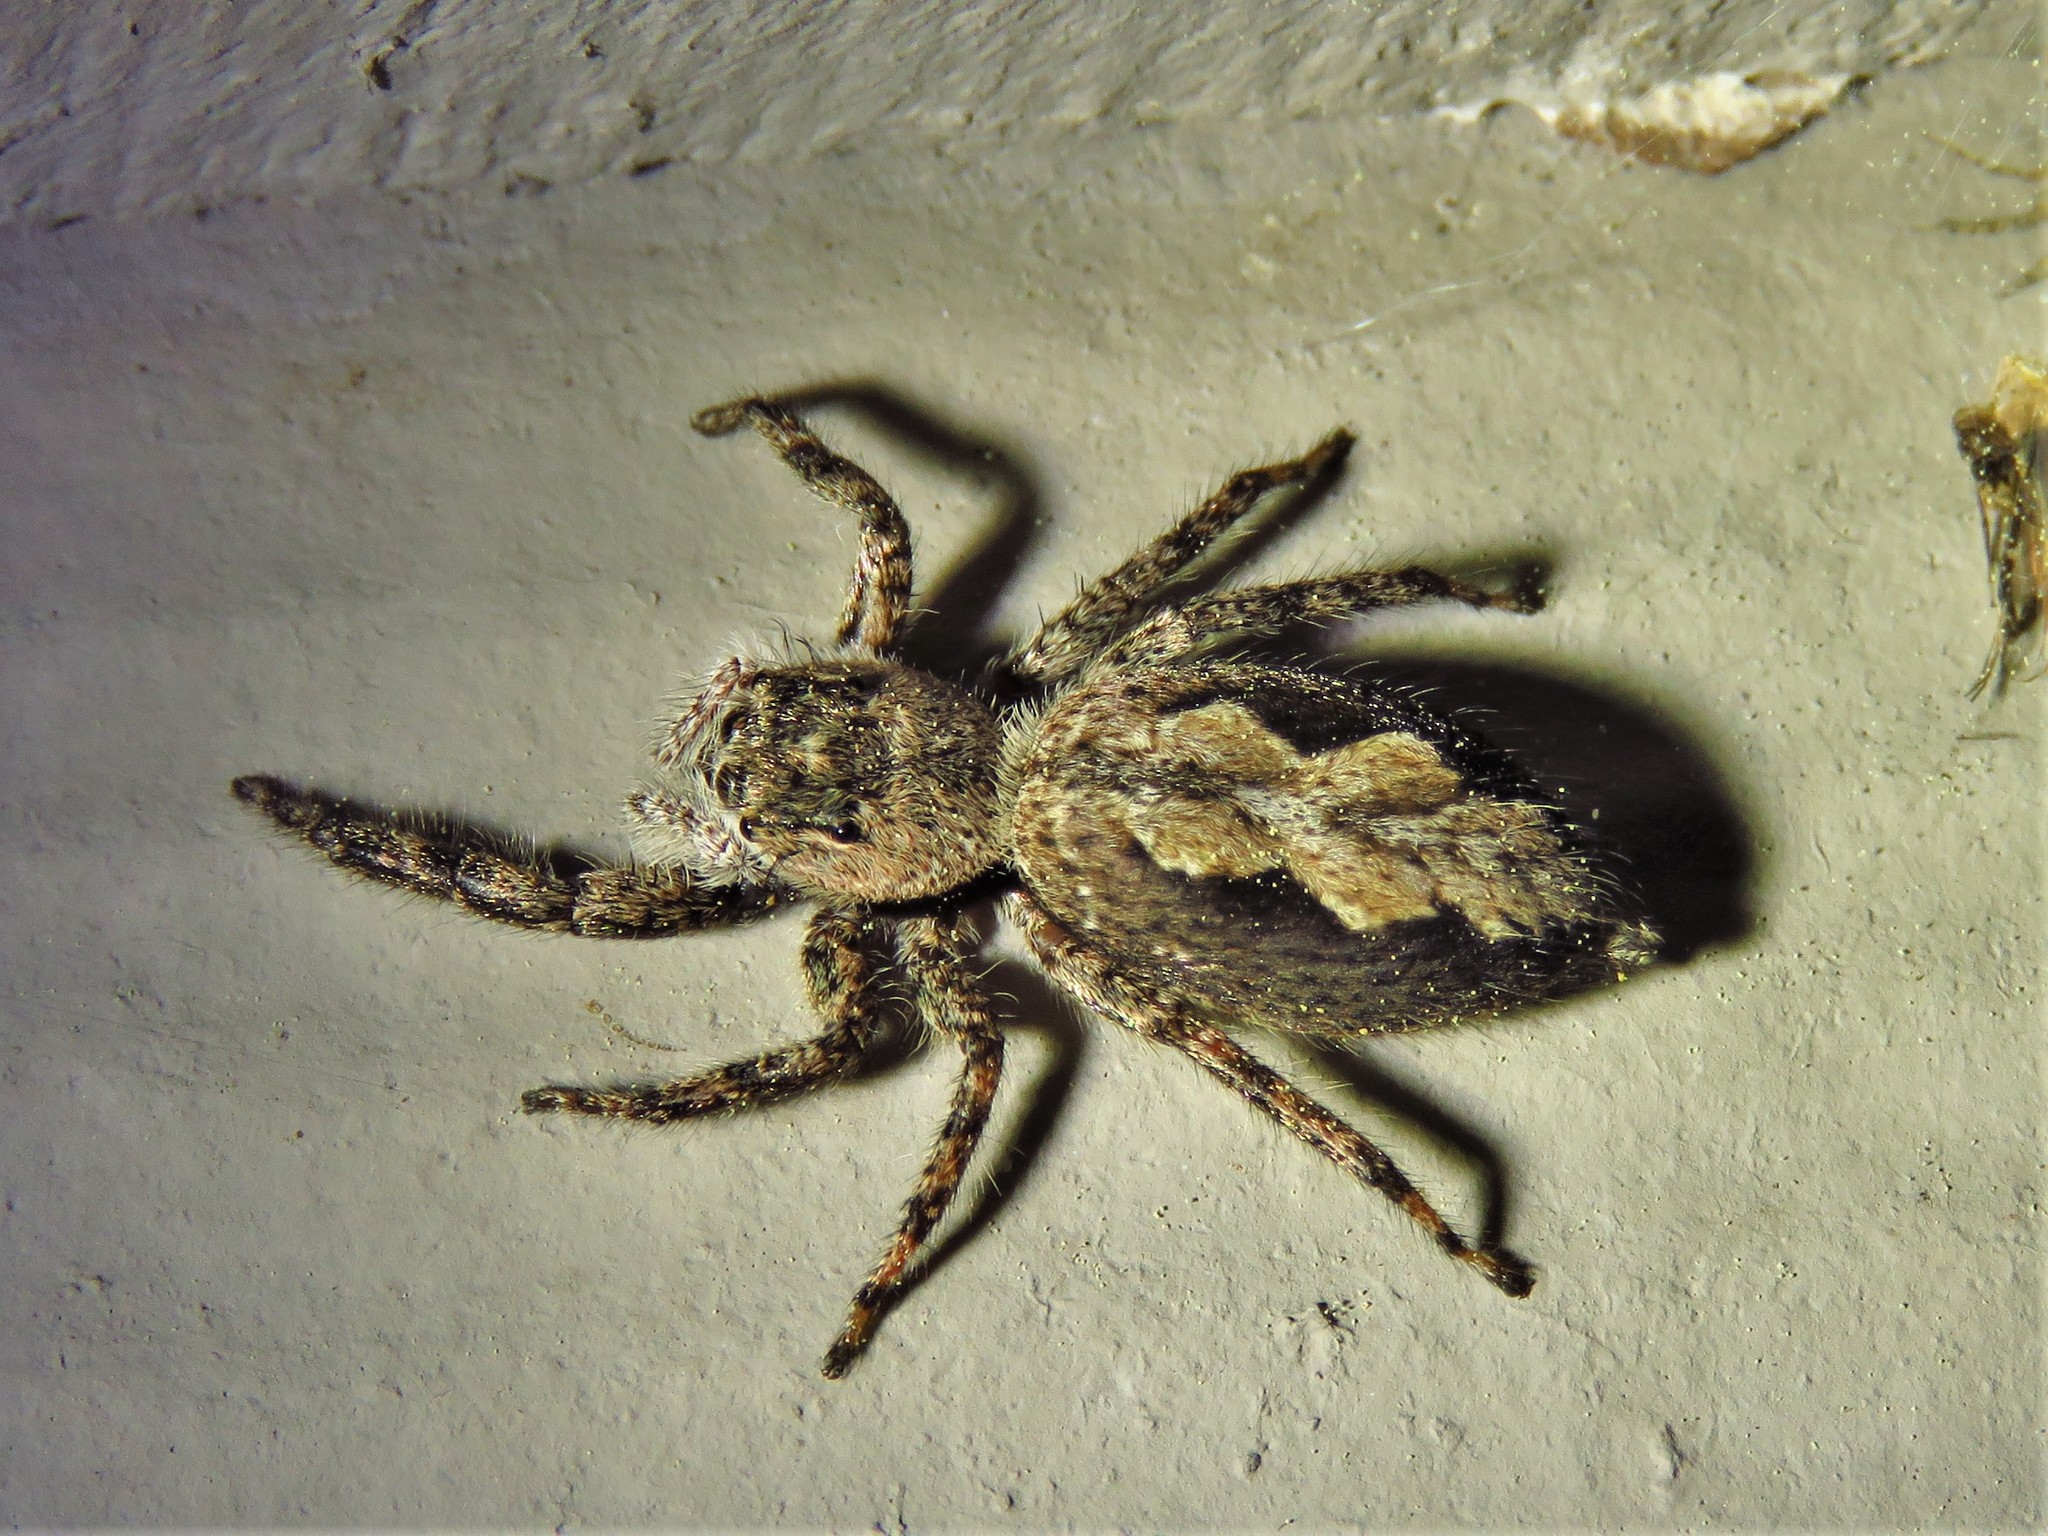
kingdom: Animalia
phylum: Arthropoda
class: Arachnida
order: Araneae
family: Salticidae
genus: Platycryptus
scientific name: Platycryptus undatus
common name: Tan jumping spider
